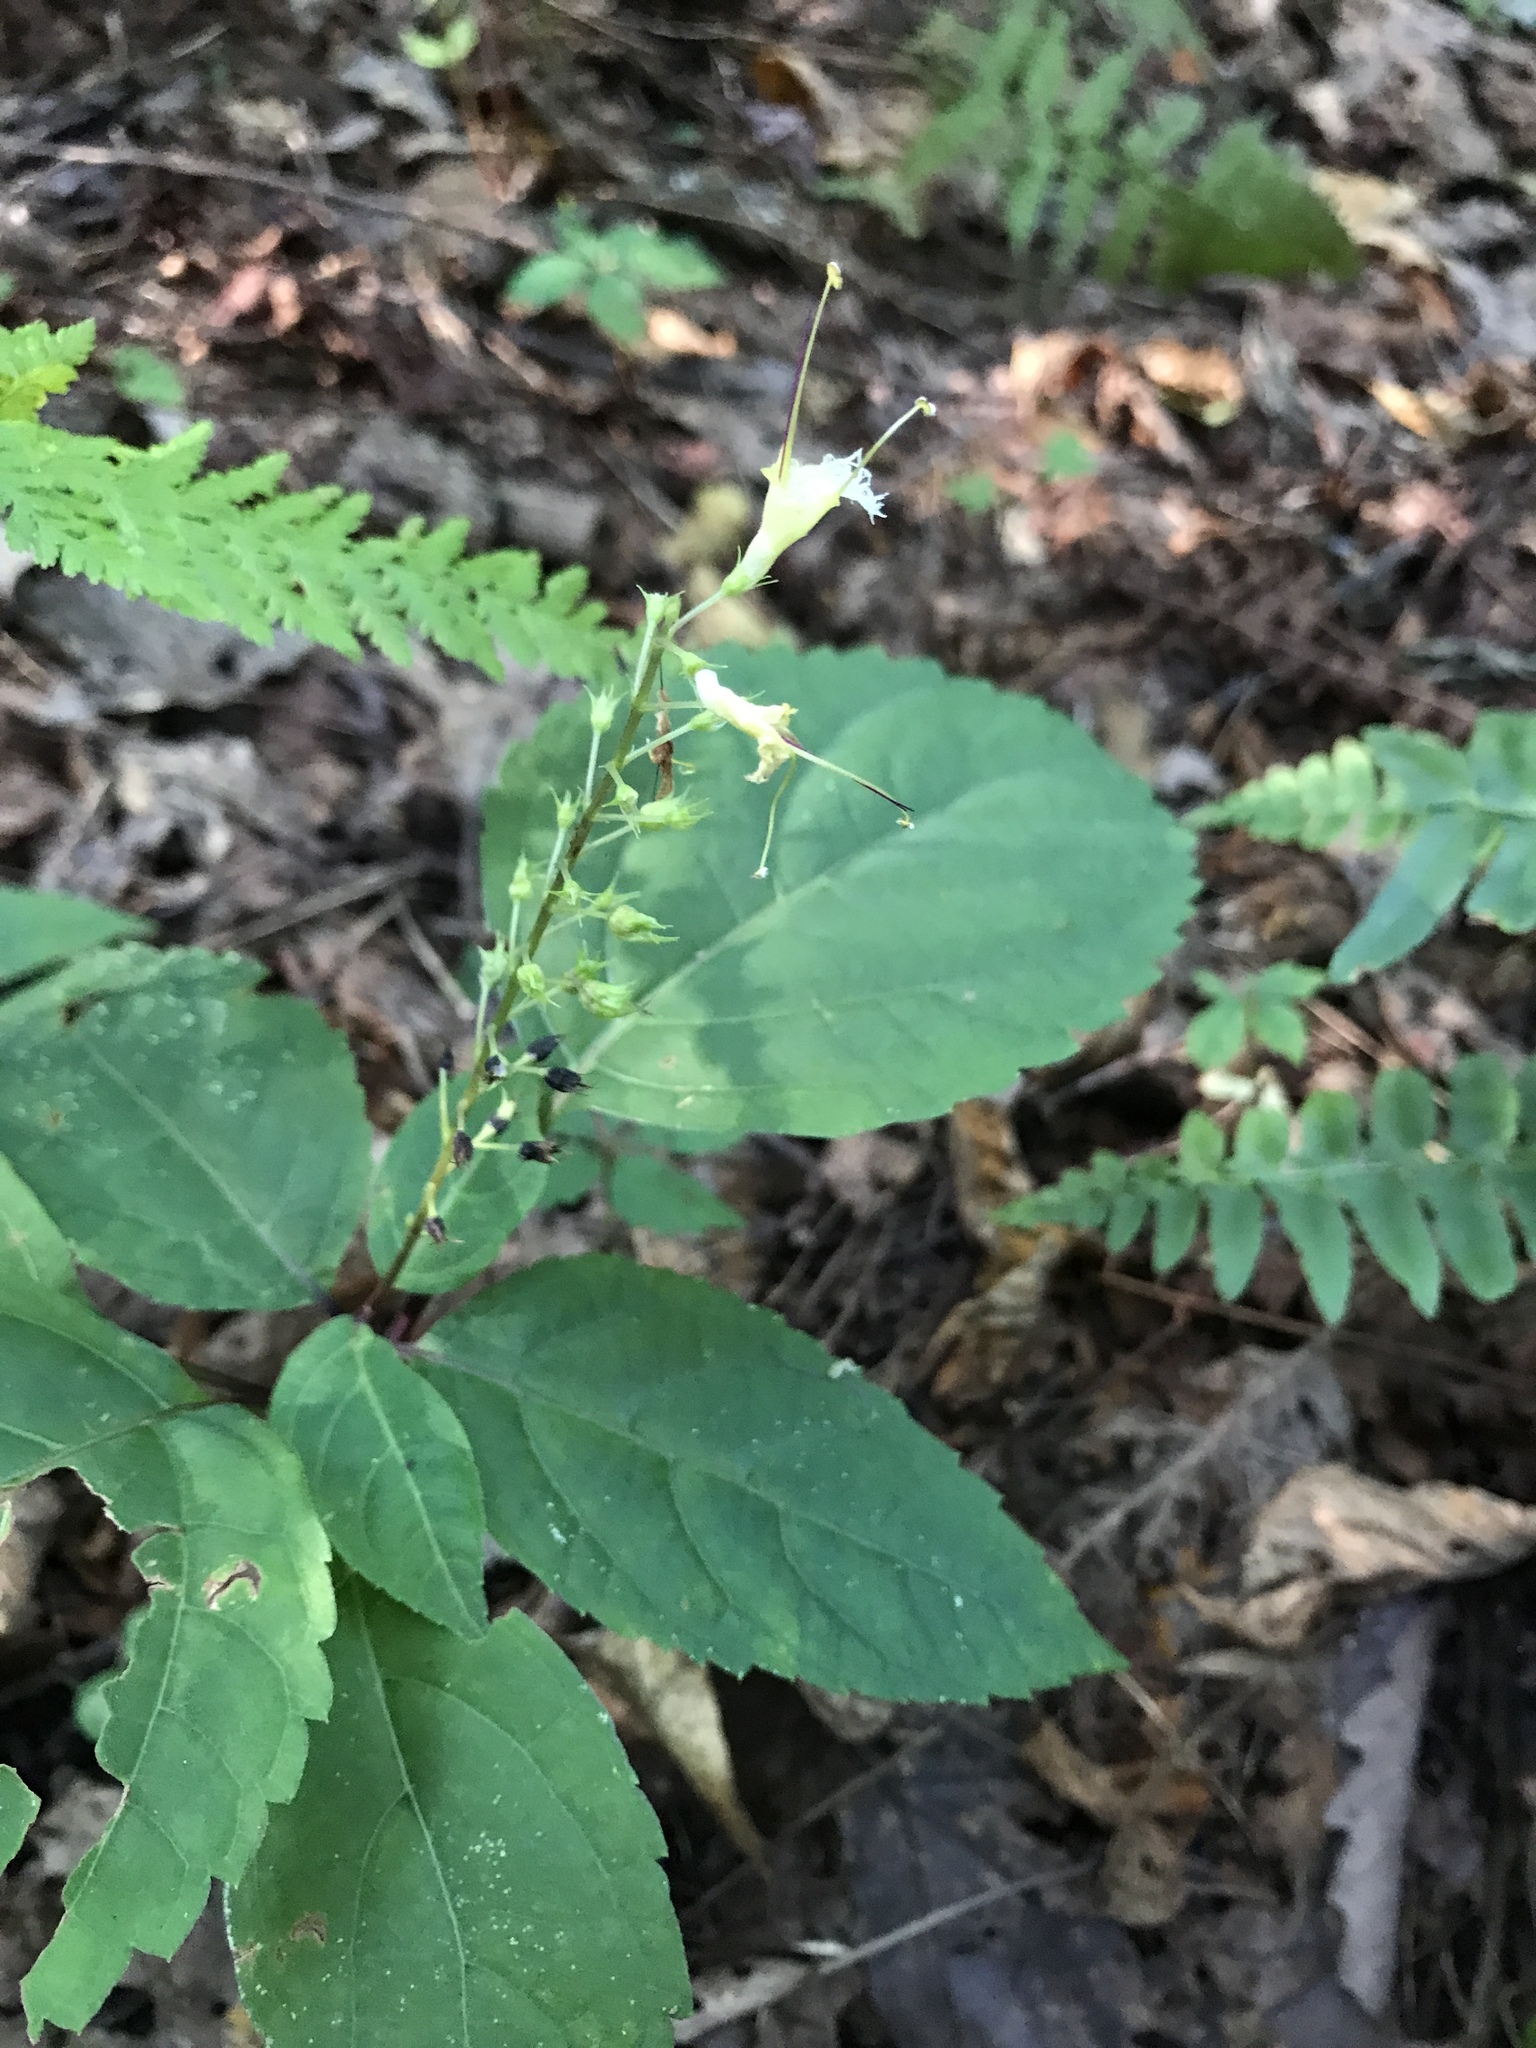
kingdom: Plantae
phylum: Tracheophyta
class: Magnoliopsida
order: Lamiales
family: Lamiaceae
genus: Collinsonia
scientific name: Collinsonia canadensis
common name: Northern horsebalm
